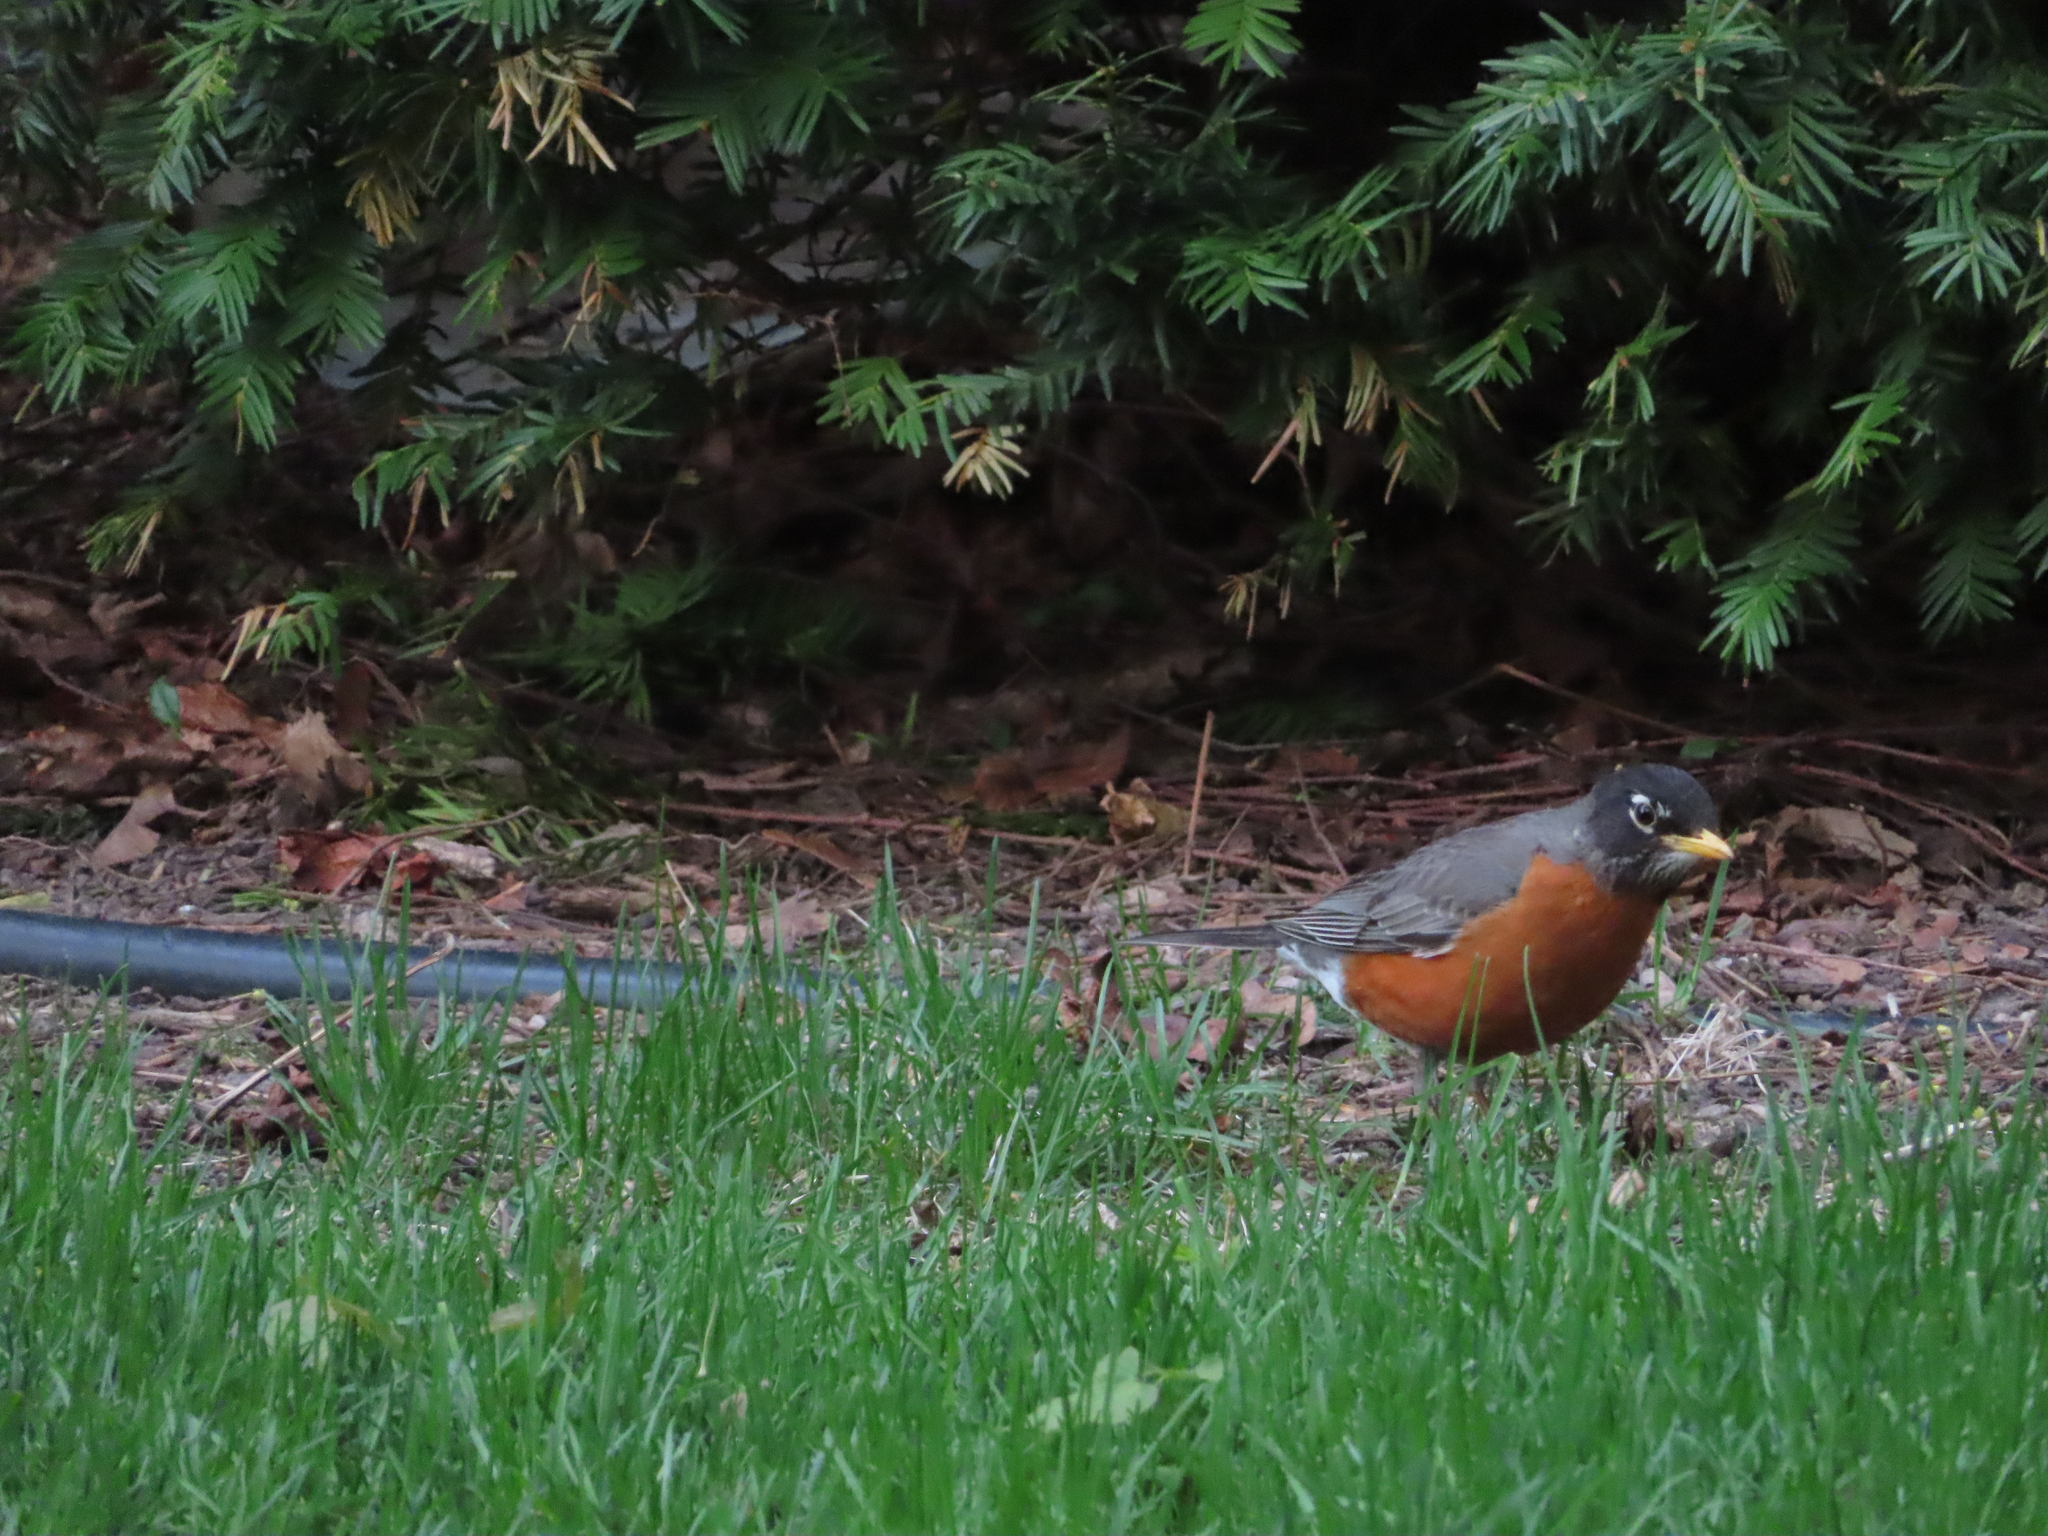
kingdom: Animalia
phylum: Chordata
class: Aves
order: Passeriformes
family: Turdidae
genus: Turdus
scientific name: Turdus migratorius
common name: American robin
